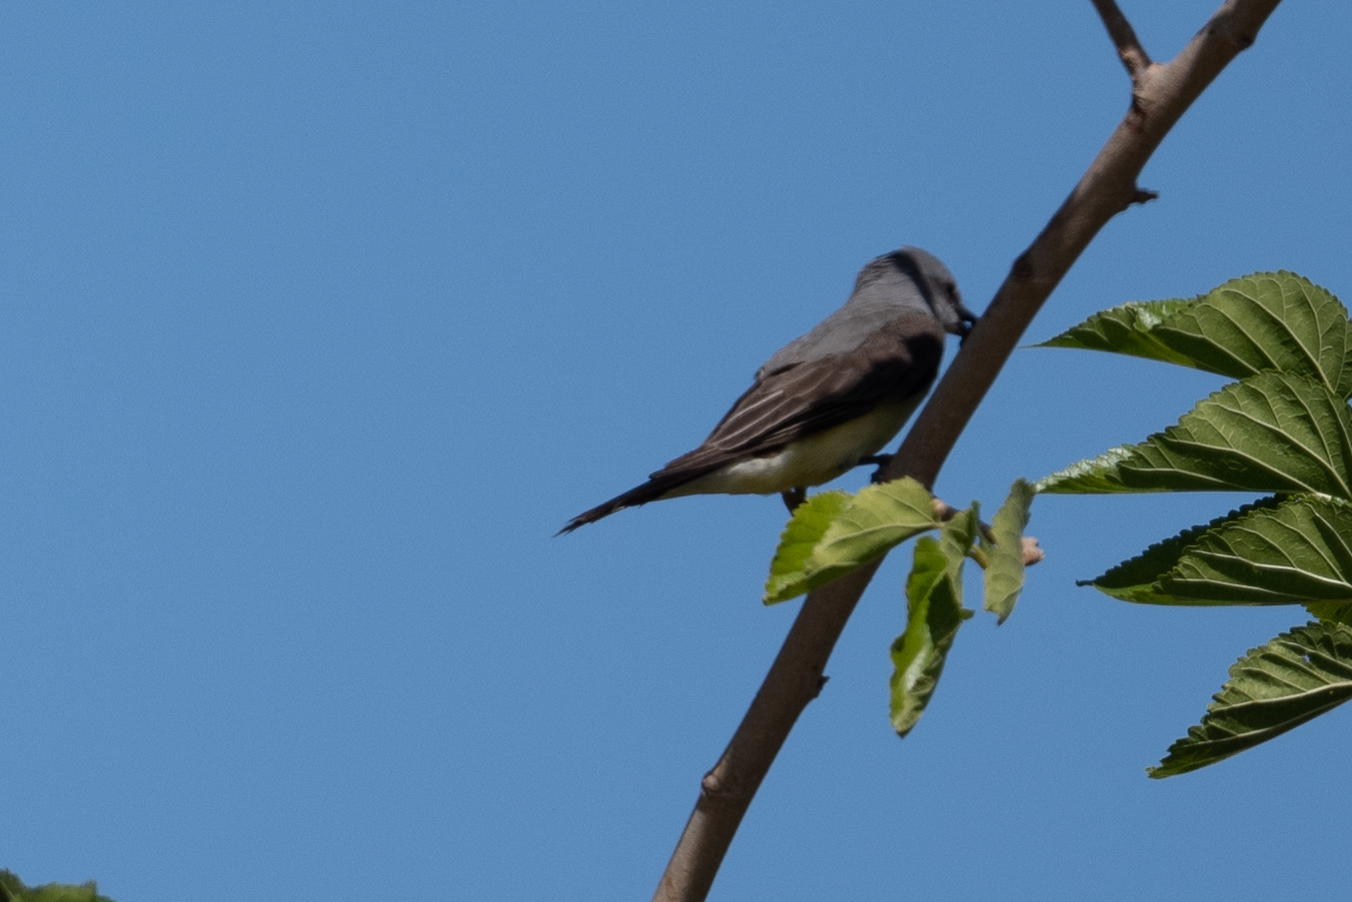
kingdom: Animalia
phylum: Chordata
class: Aves
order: Passeriformes
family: Tyrannidae
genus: Tyrannus
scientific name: Tyrannus verticalis
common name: Western kingbird
